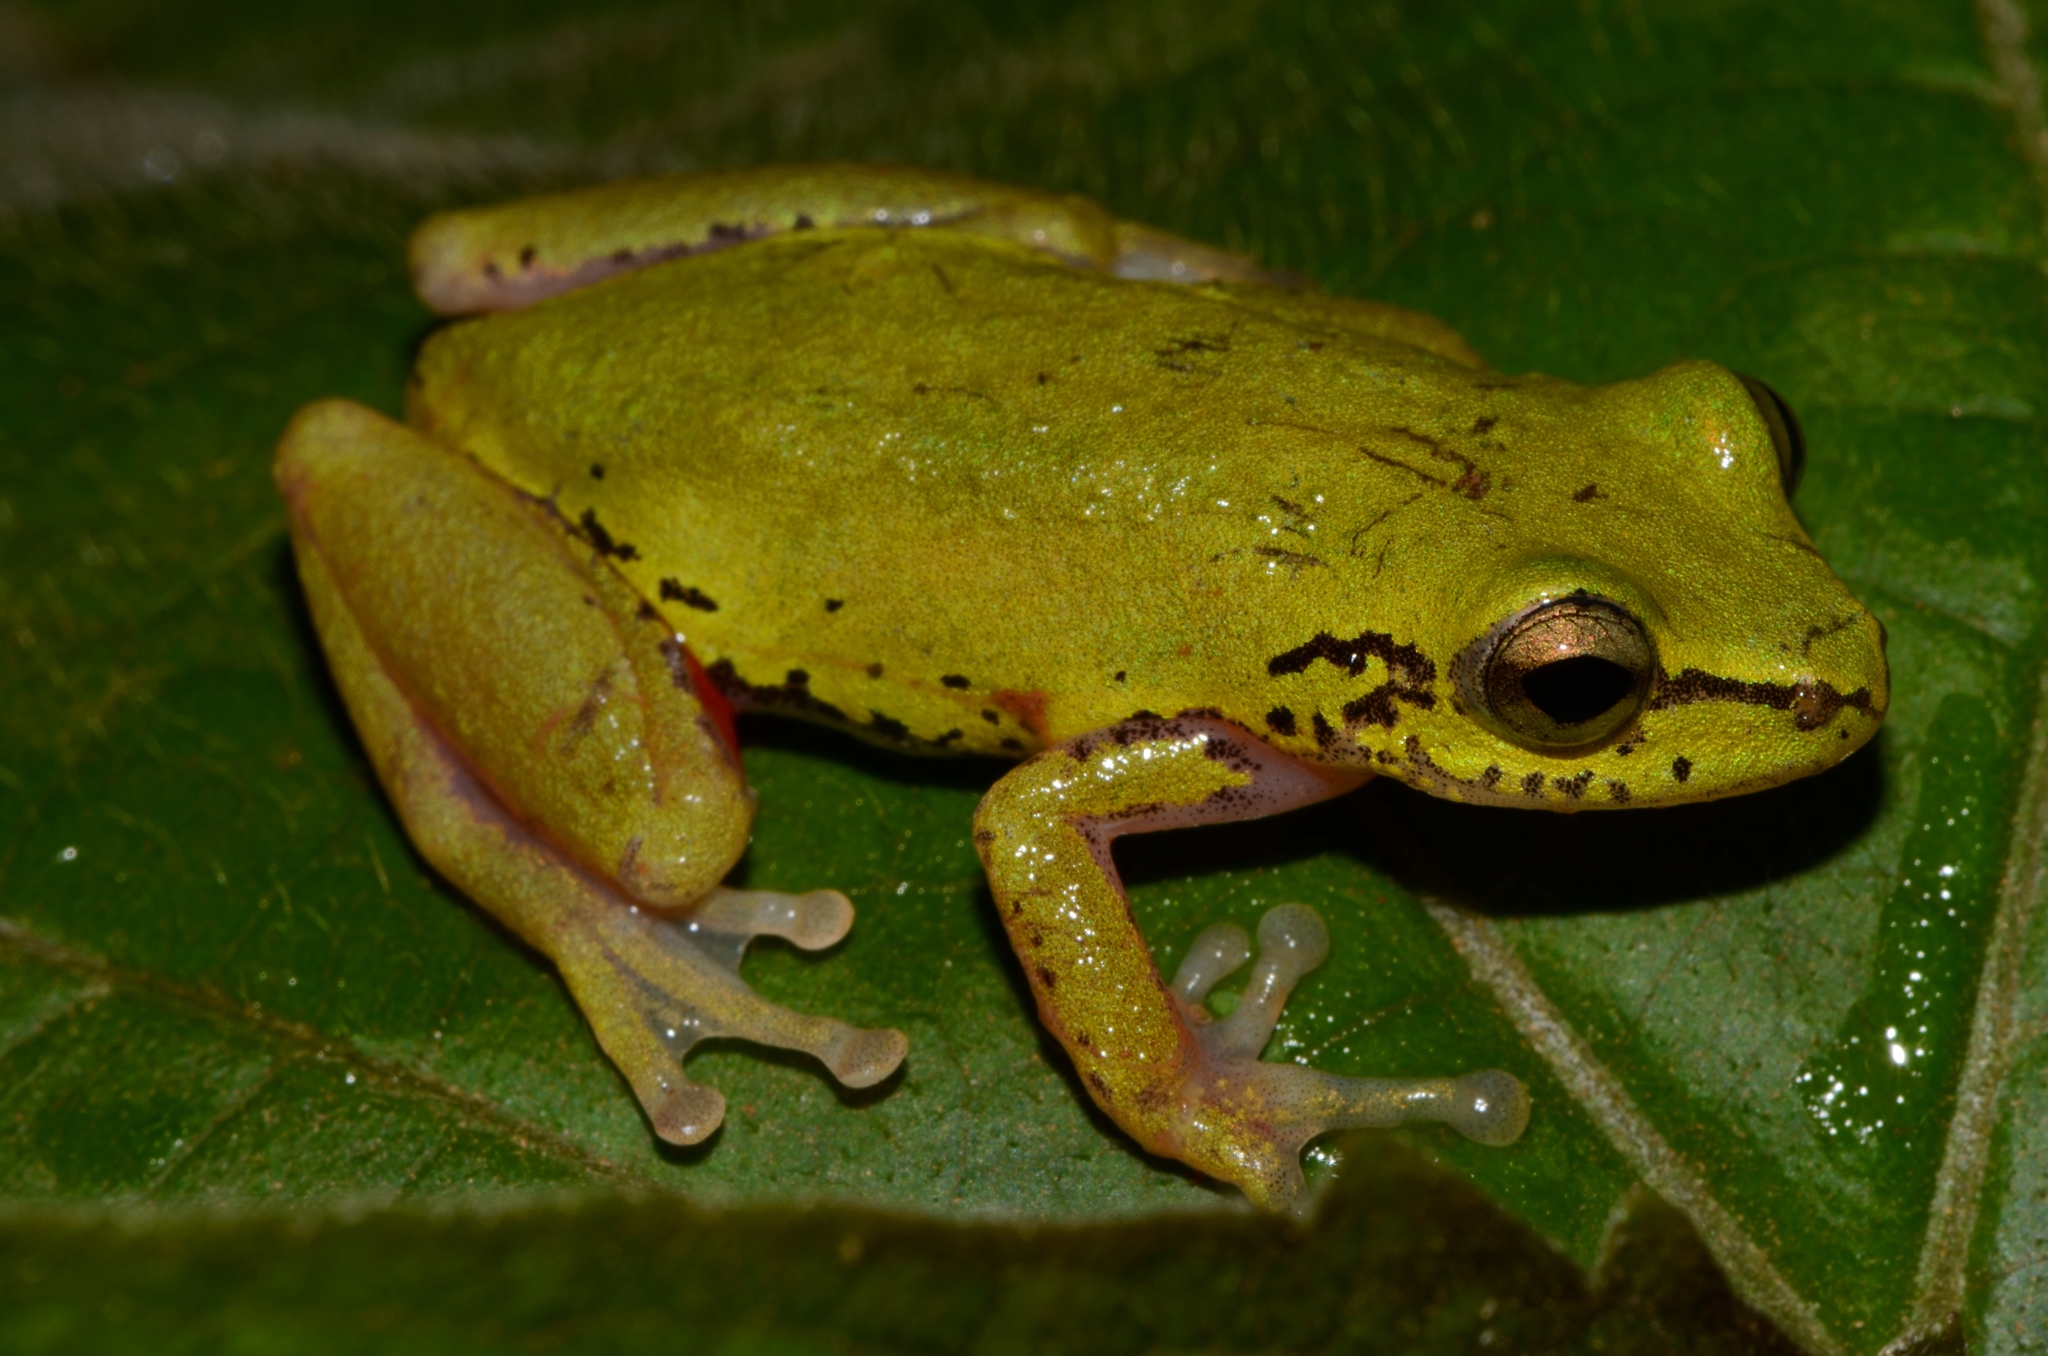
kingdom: Animalia
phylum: Chordata
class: Amphibia
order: Anura
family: Hyperoliidae
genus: Hyperolius
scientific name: Hyperolius cinnamomeoventris
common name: Duque reed frog
